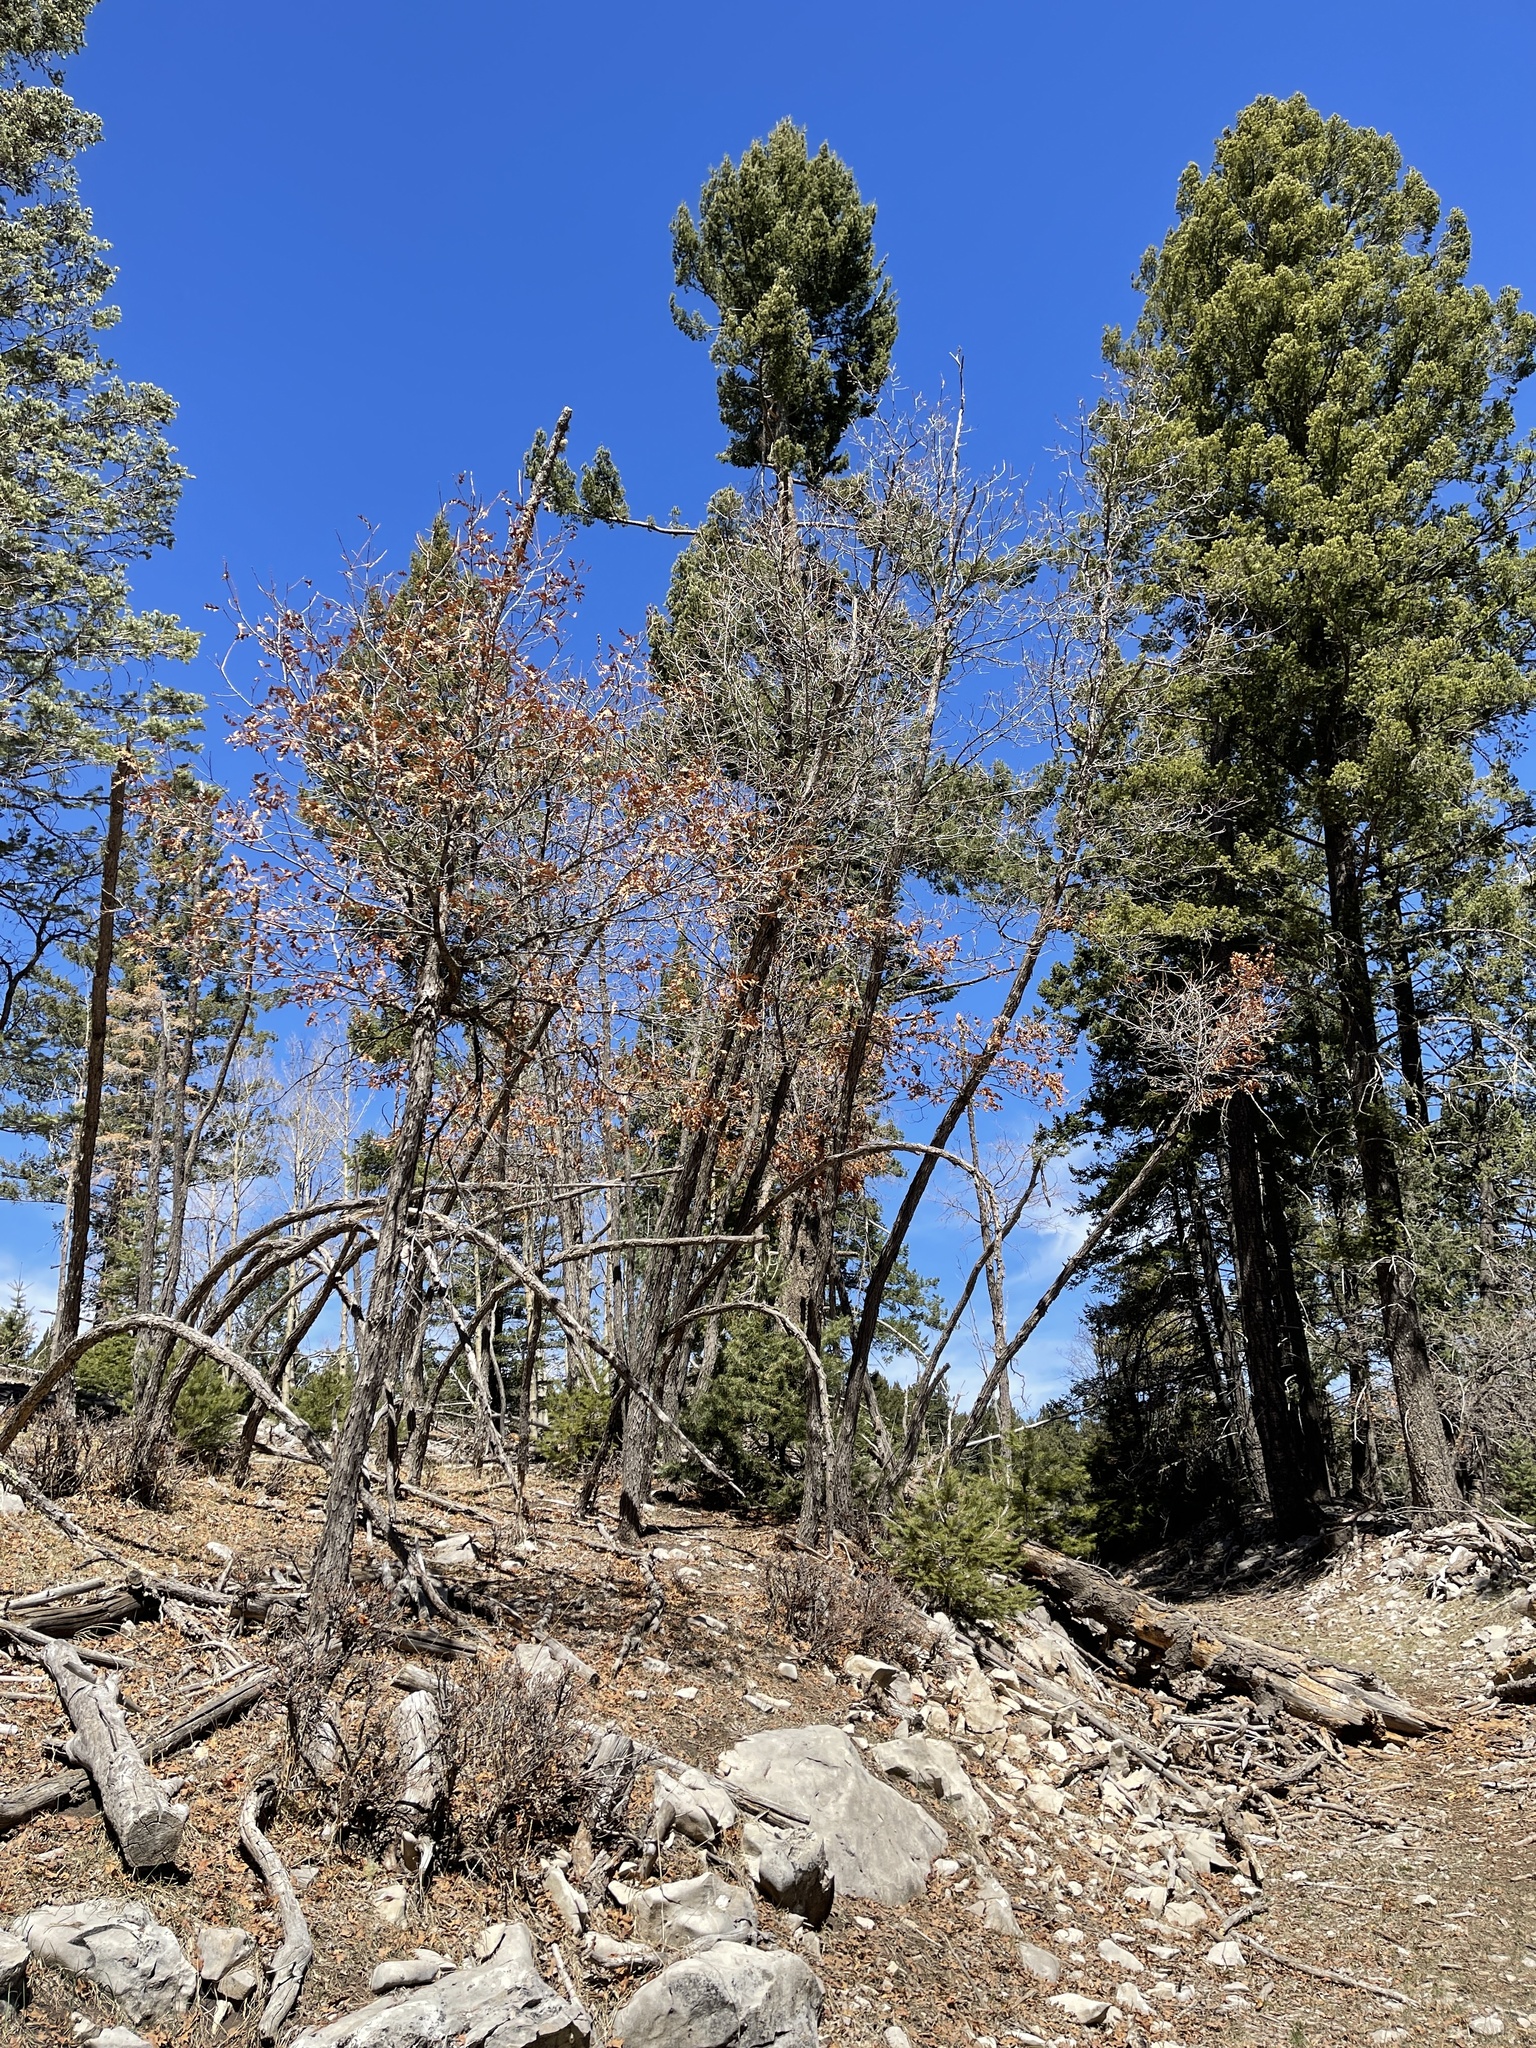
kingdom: Plantae
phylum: Tracheophyta
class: Magnoliopsida
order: Fagales
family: Fagaceae
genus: Quercus
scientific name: Quercus gambelii
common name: Gambel oak
